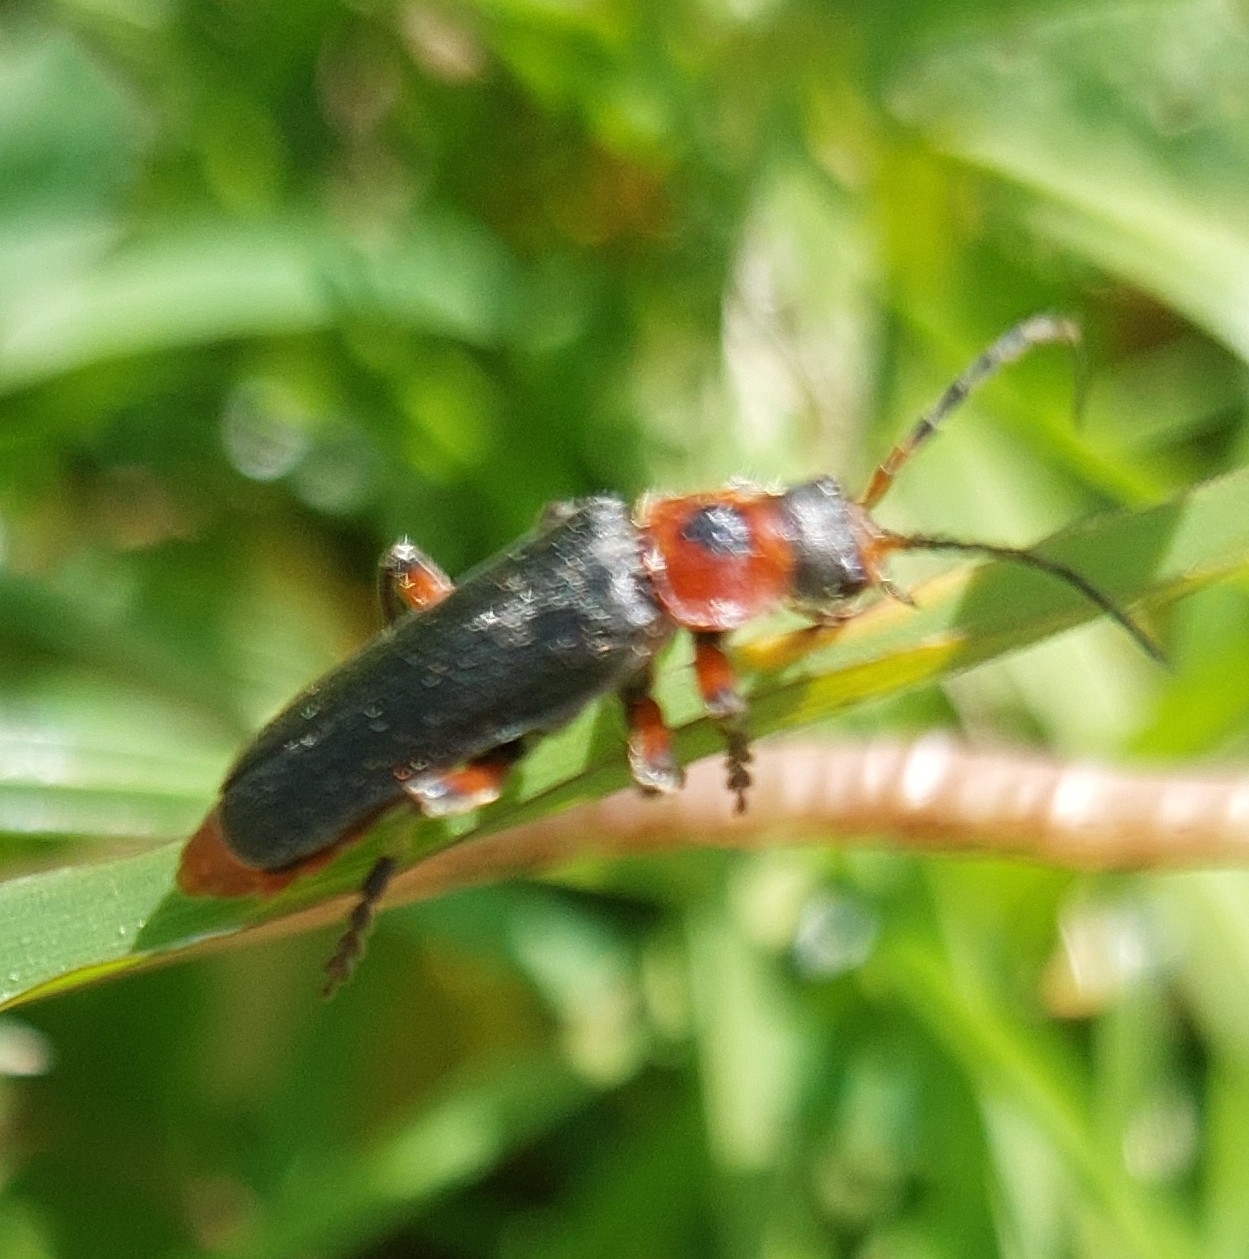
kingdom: Animalia
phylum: Arthropoda
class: Insecta
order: Coleoptera
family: Cantharidae
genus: Cantharis
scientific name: Cantharis rustica
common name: Soldier beetle
